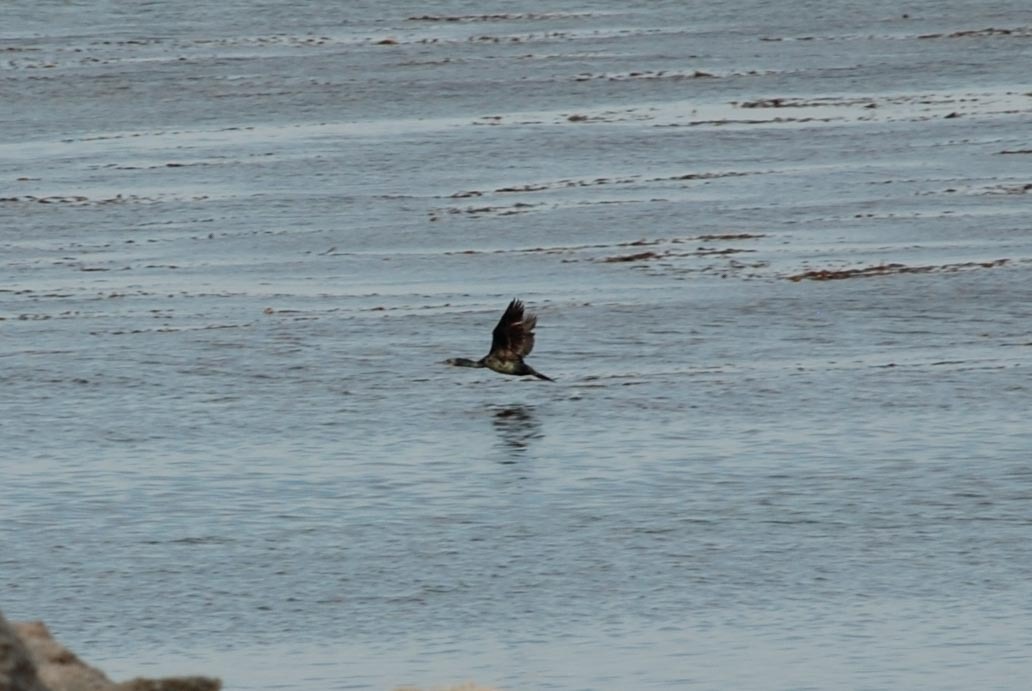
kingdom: Animalia
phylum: Chordata
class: Aves
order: Suliformes
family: Phalacrocoracidae
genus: Urile
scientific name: Urile penicillatus
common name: Brandt's cormorant
